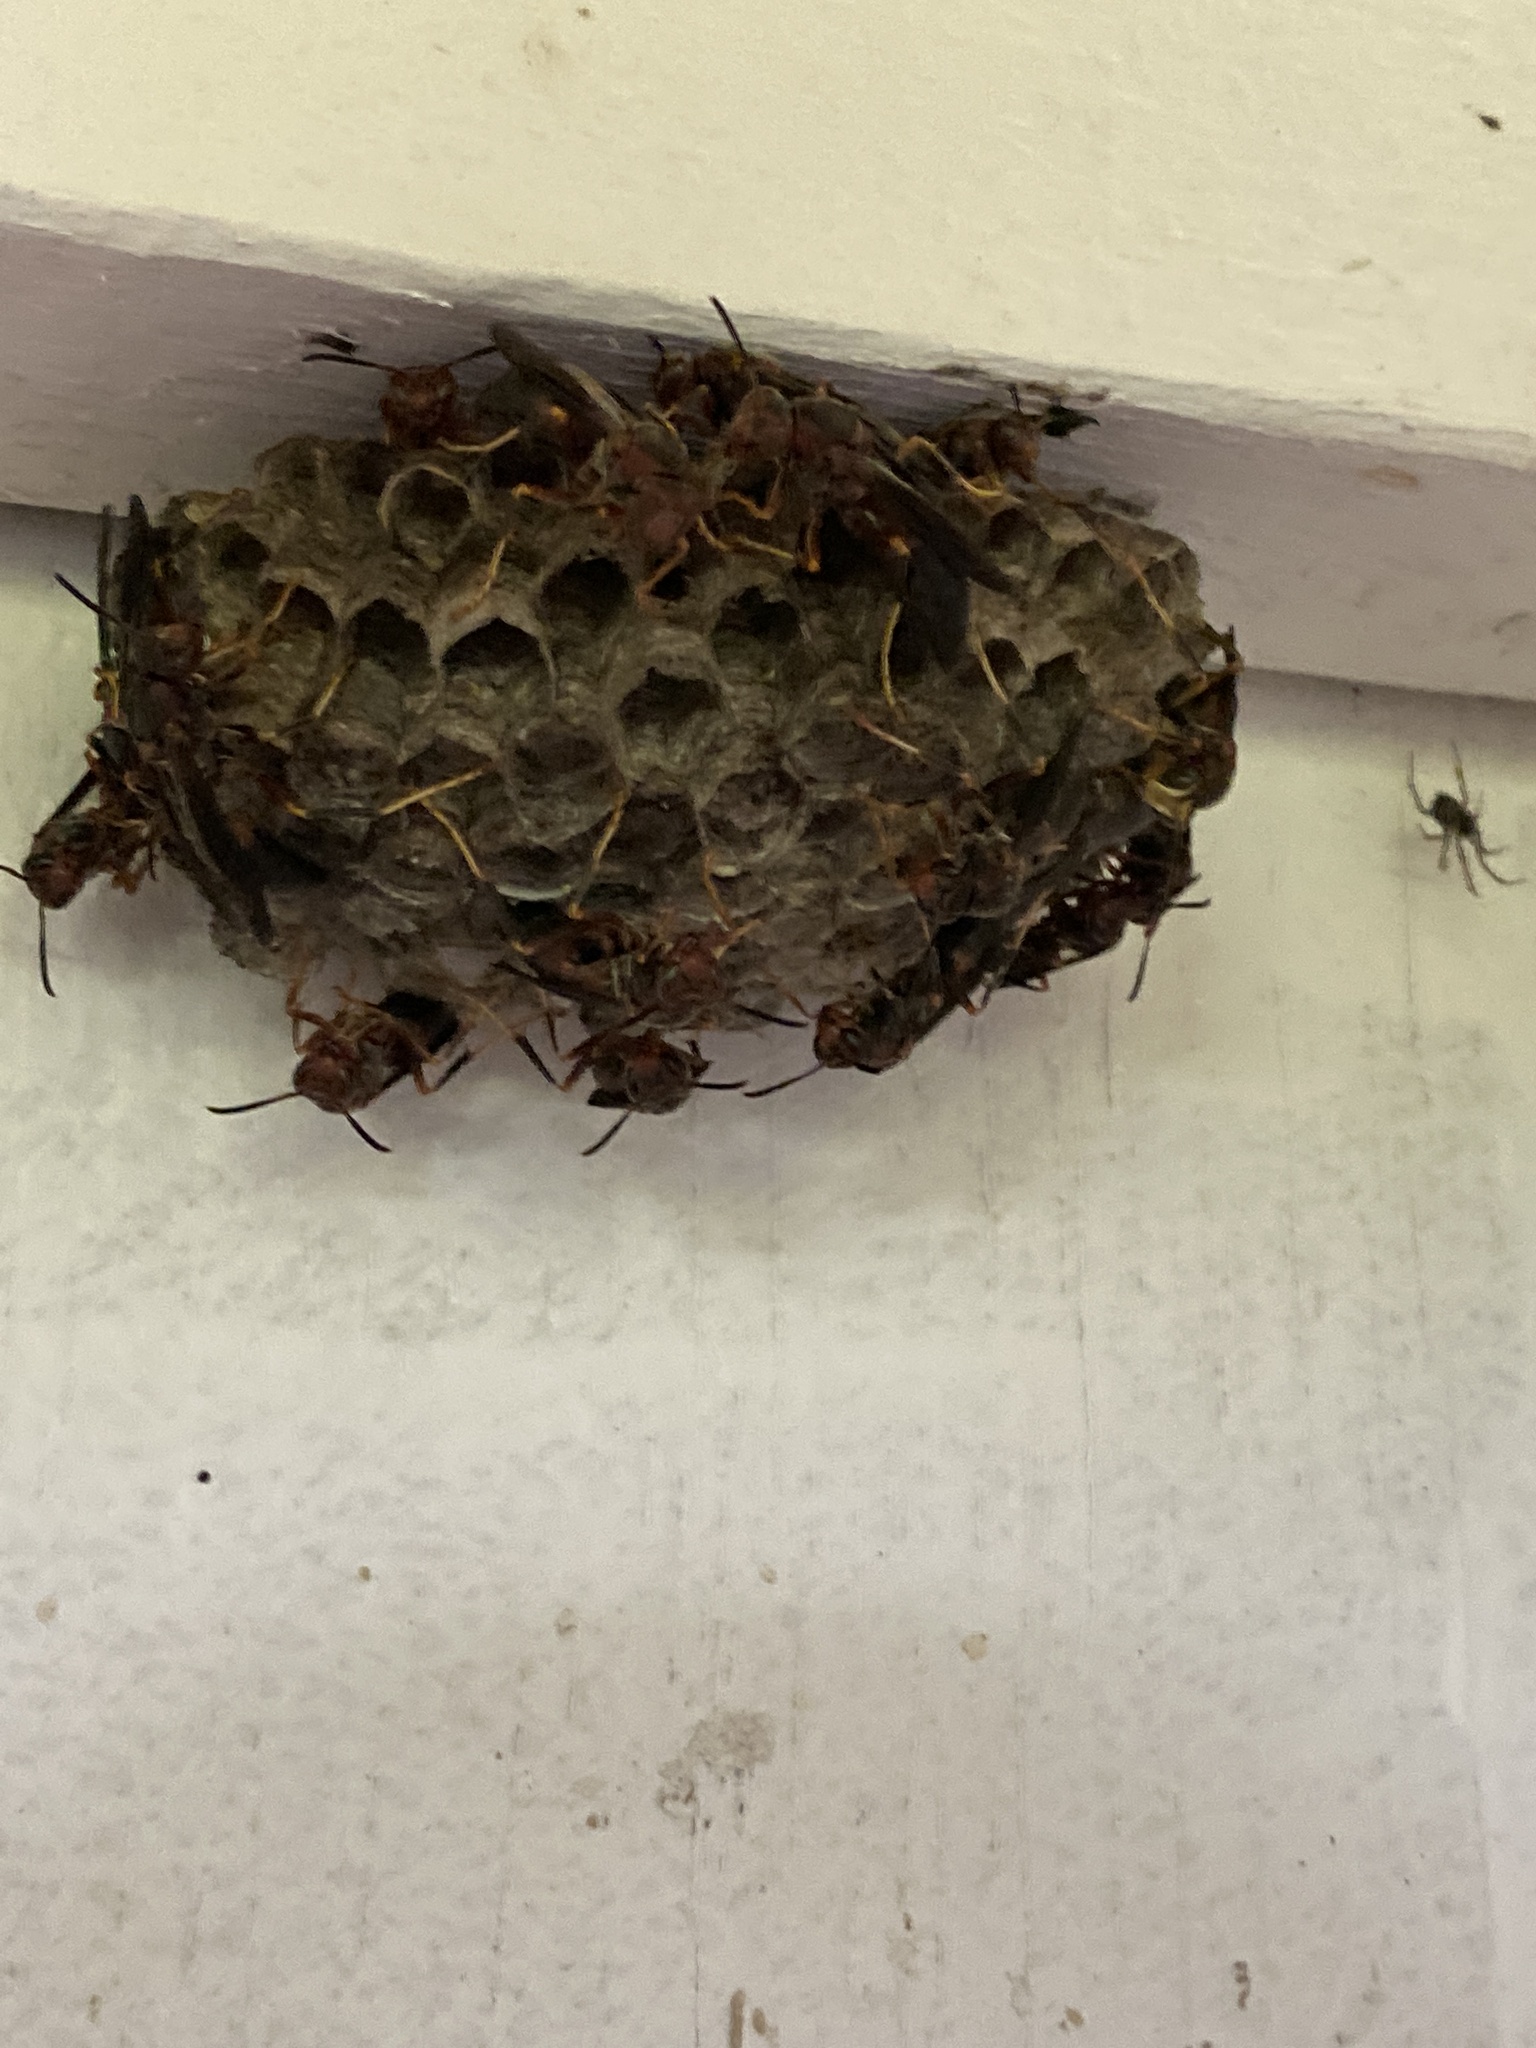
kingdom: Animalia
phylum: Arthropoda
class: Insecta
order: Hymenoptera
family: Eumenidae
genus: Polistes
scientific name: Polistes metricus
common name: Metric paper wasp
